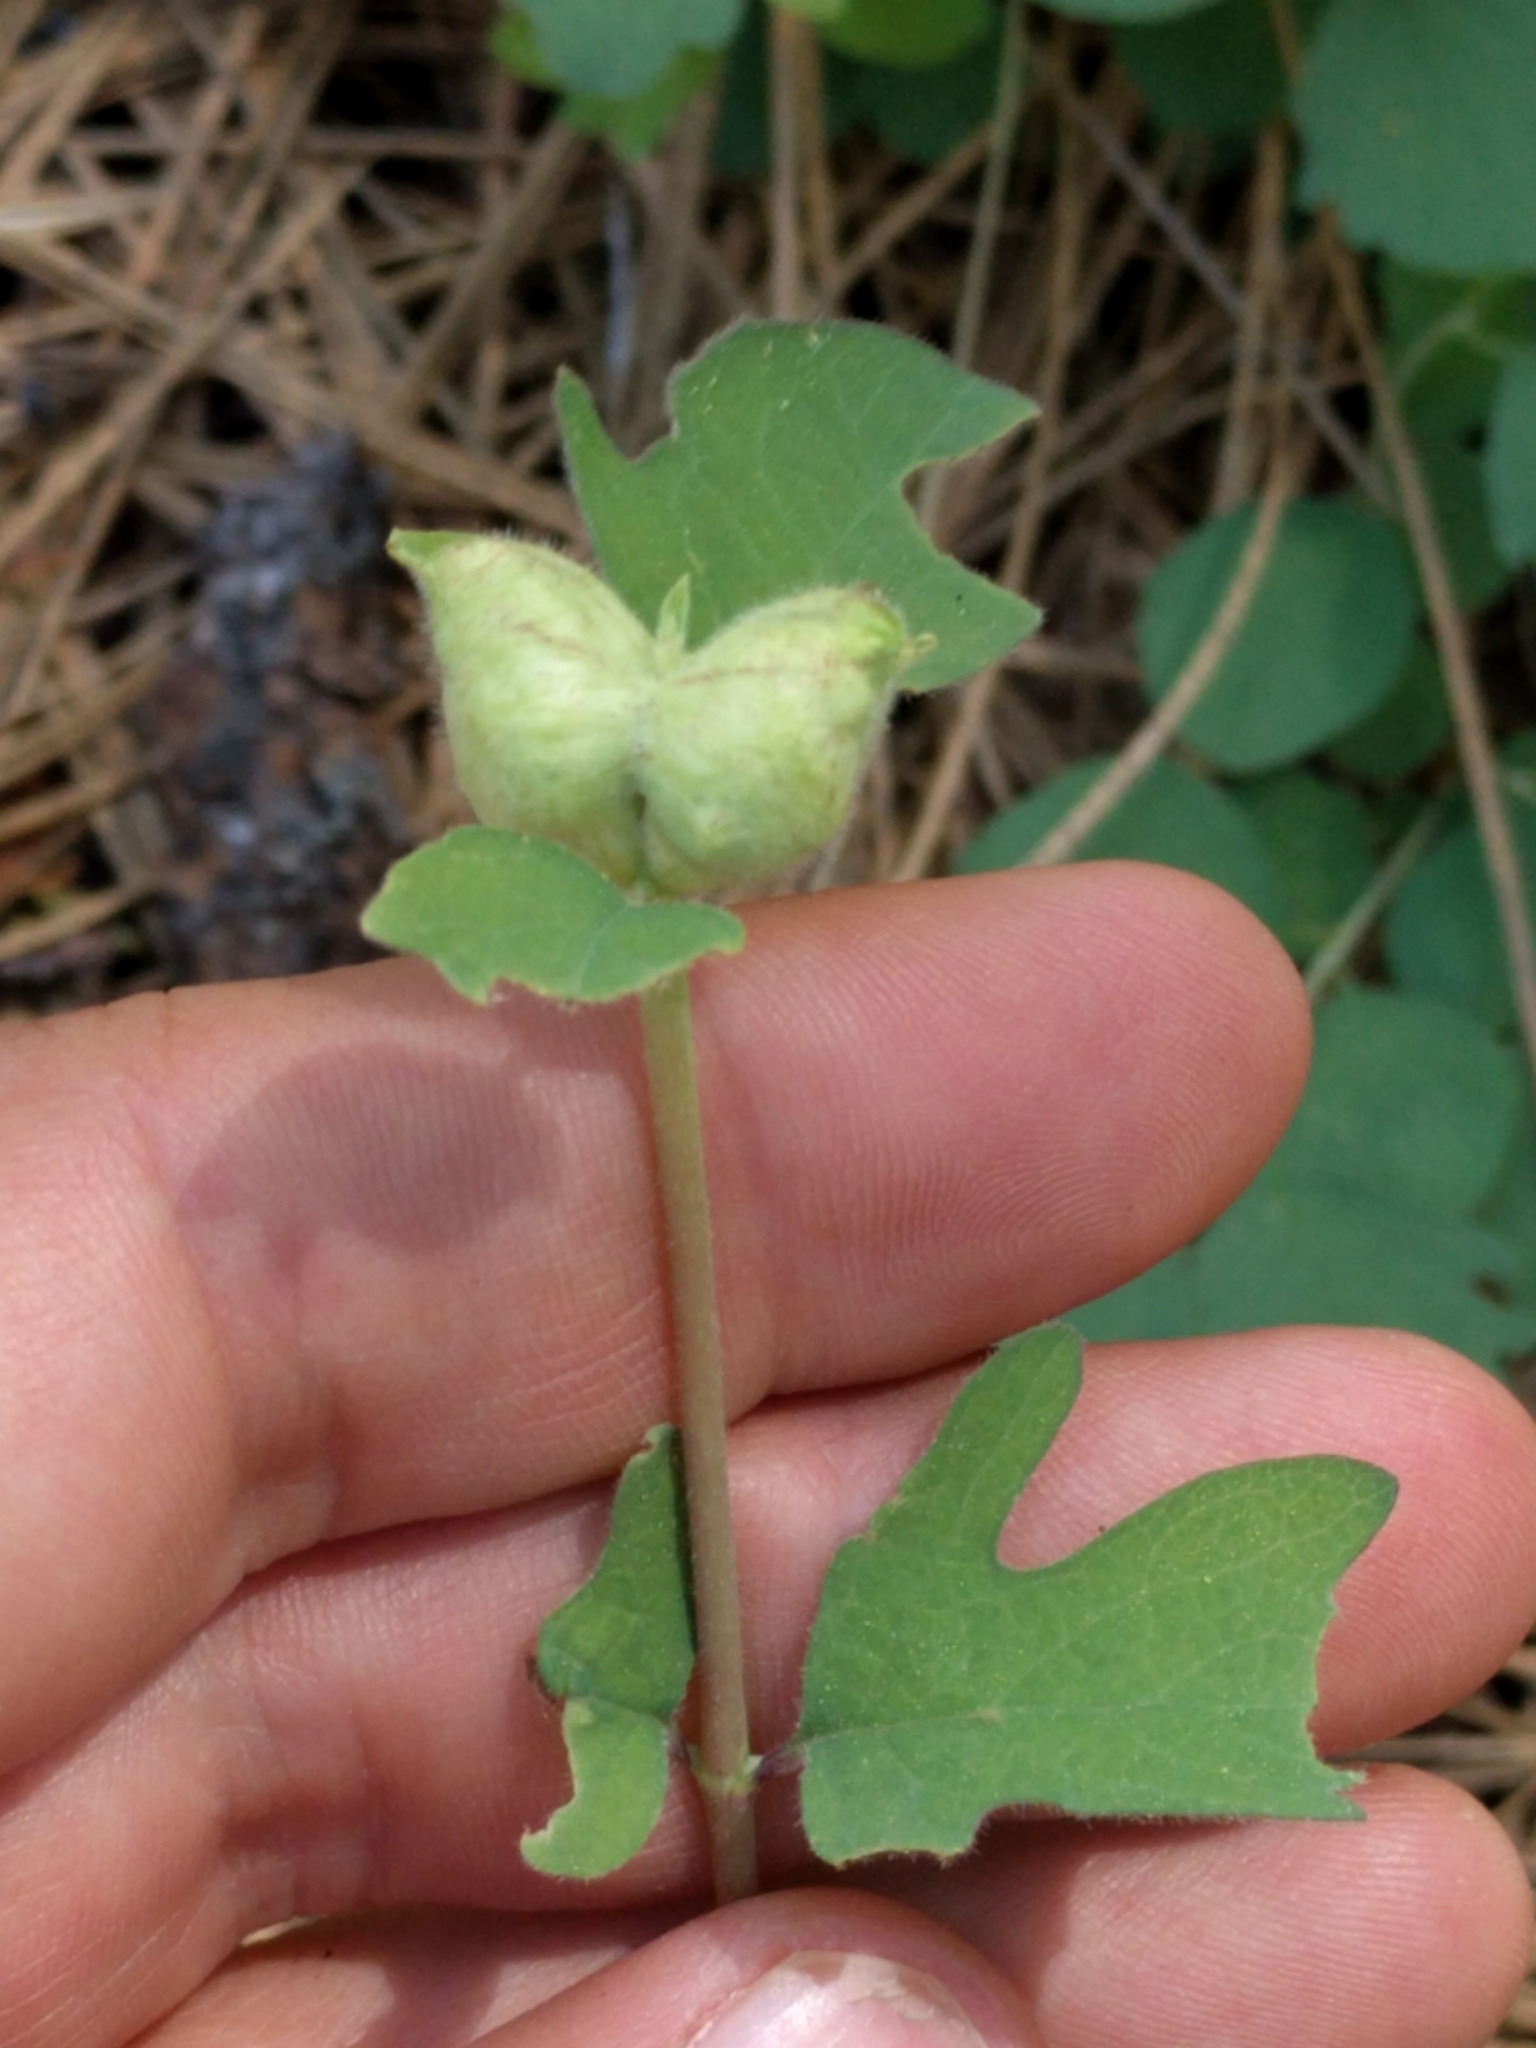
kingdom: Animalia
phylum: Arthropoda
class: Insecta
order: Hymenoptera
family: Tenthredinidae
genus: Blennogeneris
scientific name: Blennogeneris spissipes
